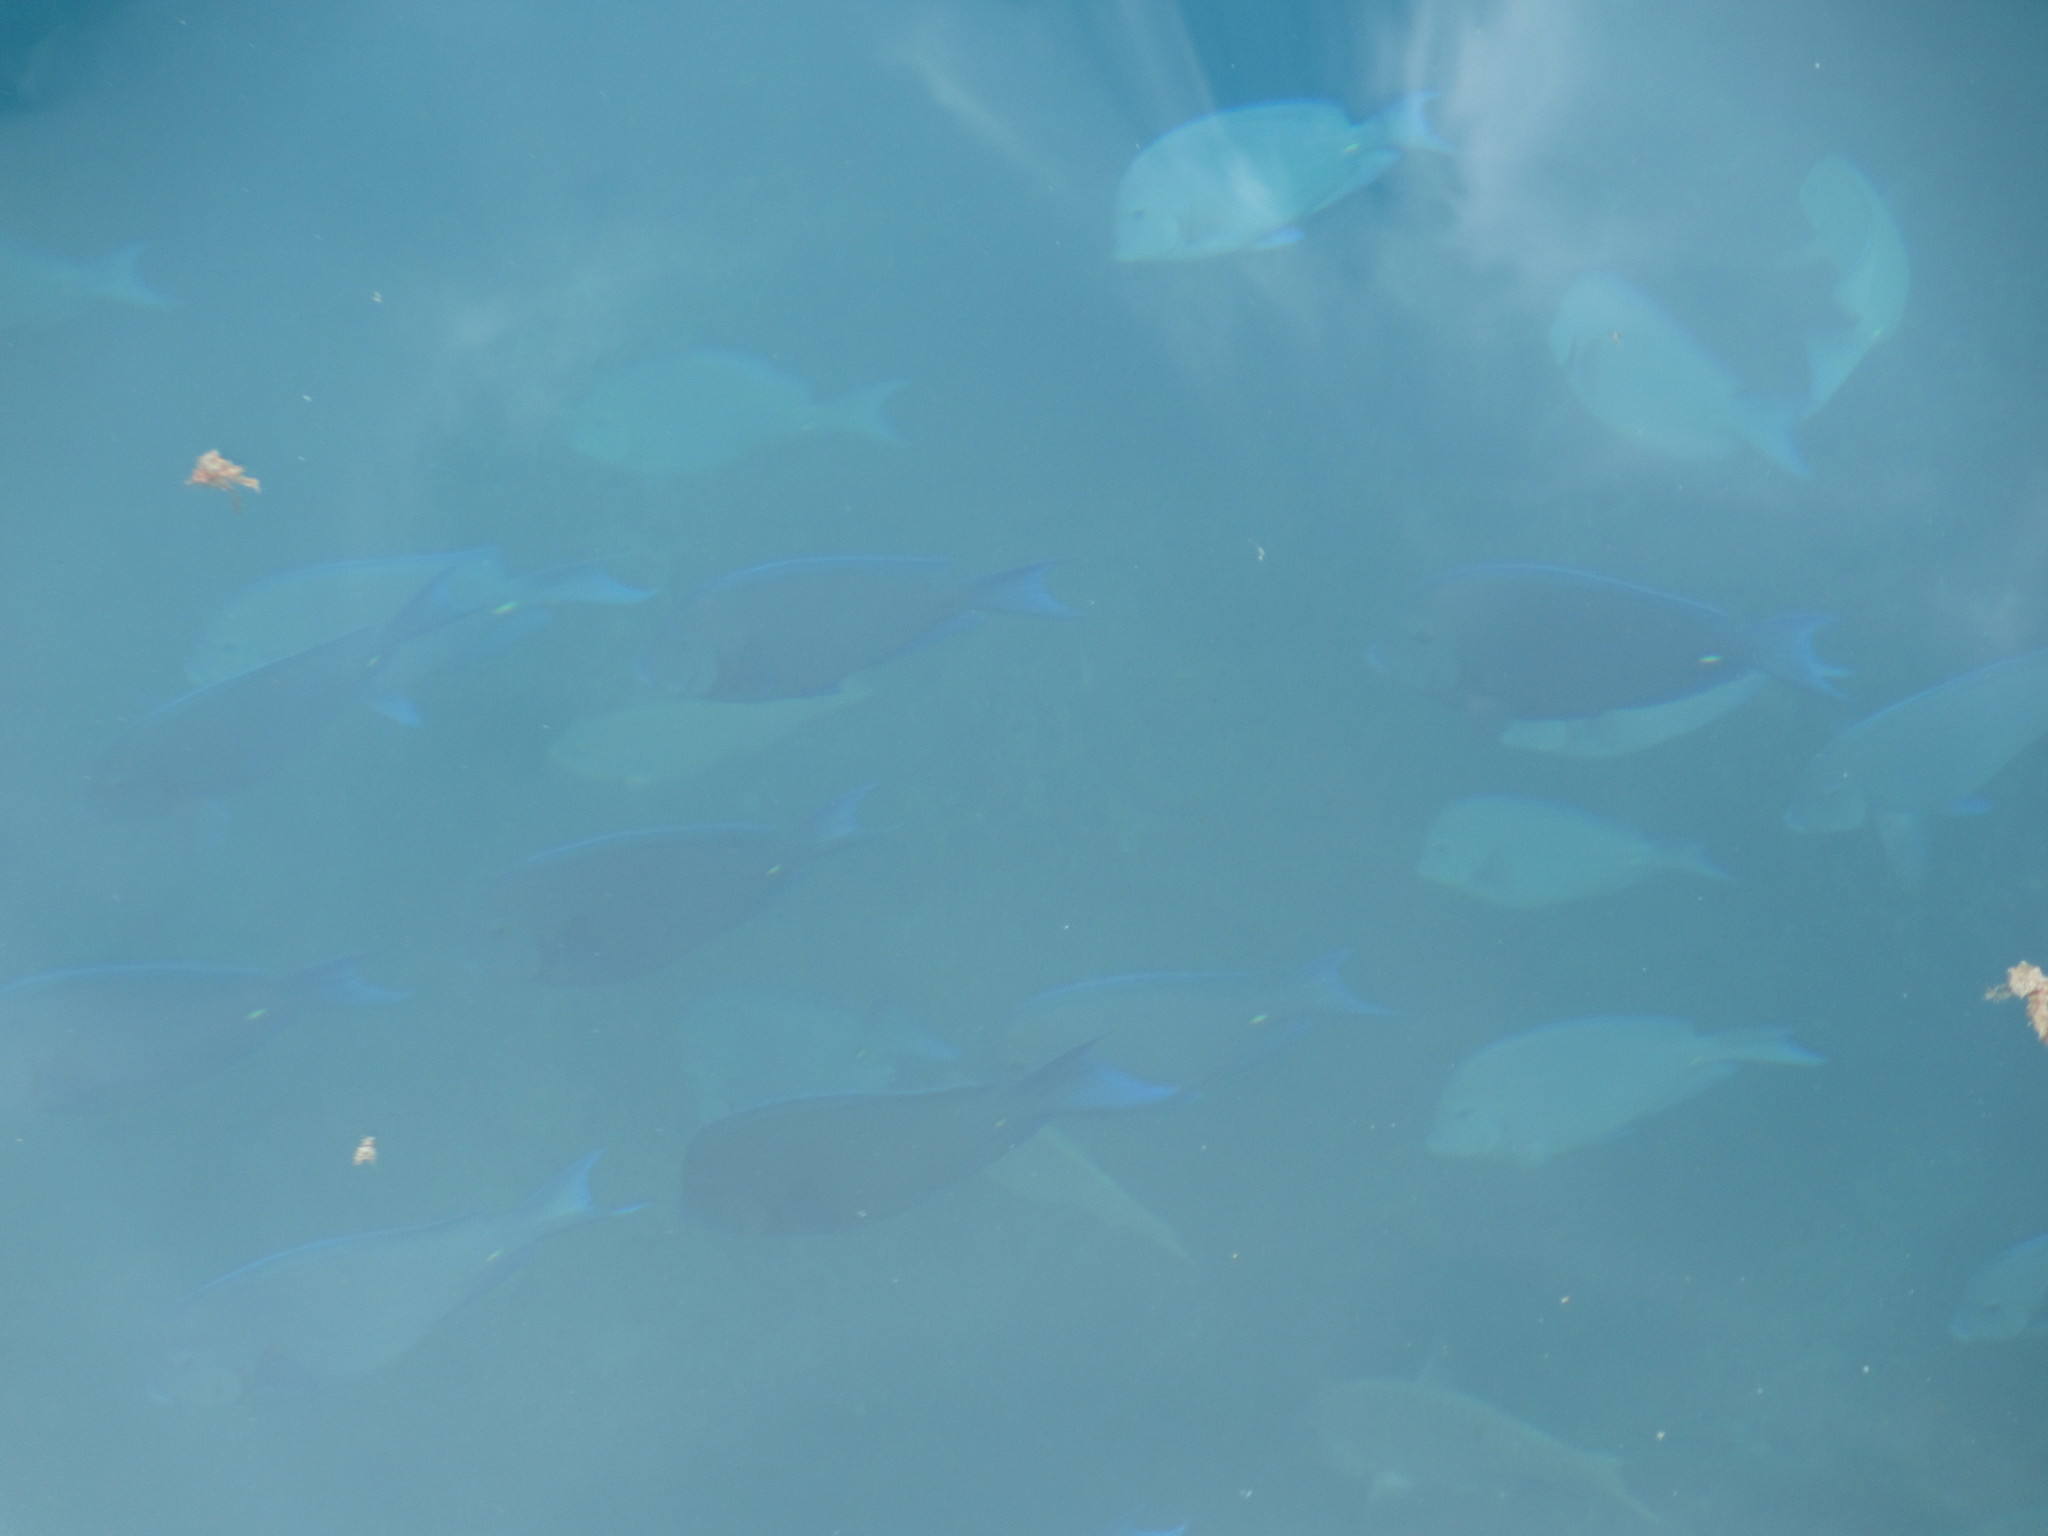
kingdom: Animalia
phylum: Chordata
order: Perciformes
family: Acanthuridae
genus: Acanthurus
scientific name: Acanthurus coeruleus
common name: Blue tang
